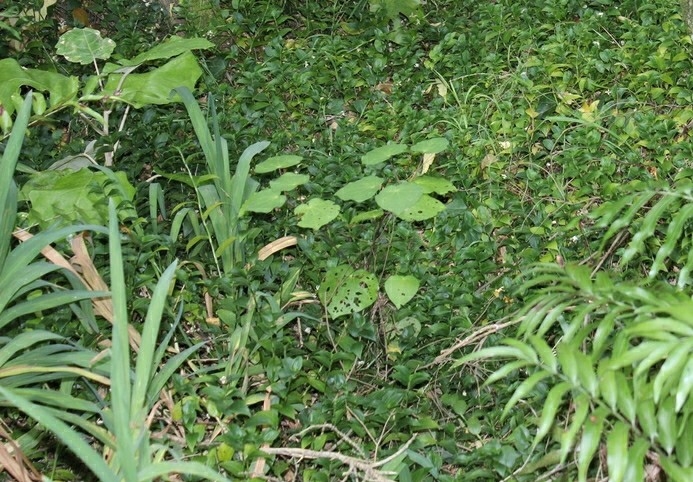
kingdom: Plantae
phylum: Tracheophyta
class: Magnoliopsida
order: Piperales
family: Piperaceae
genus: Macropiper
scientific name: Macropiper excelsum
